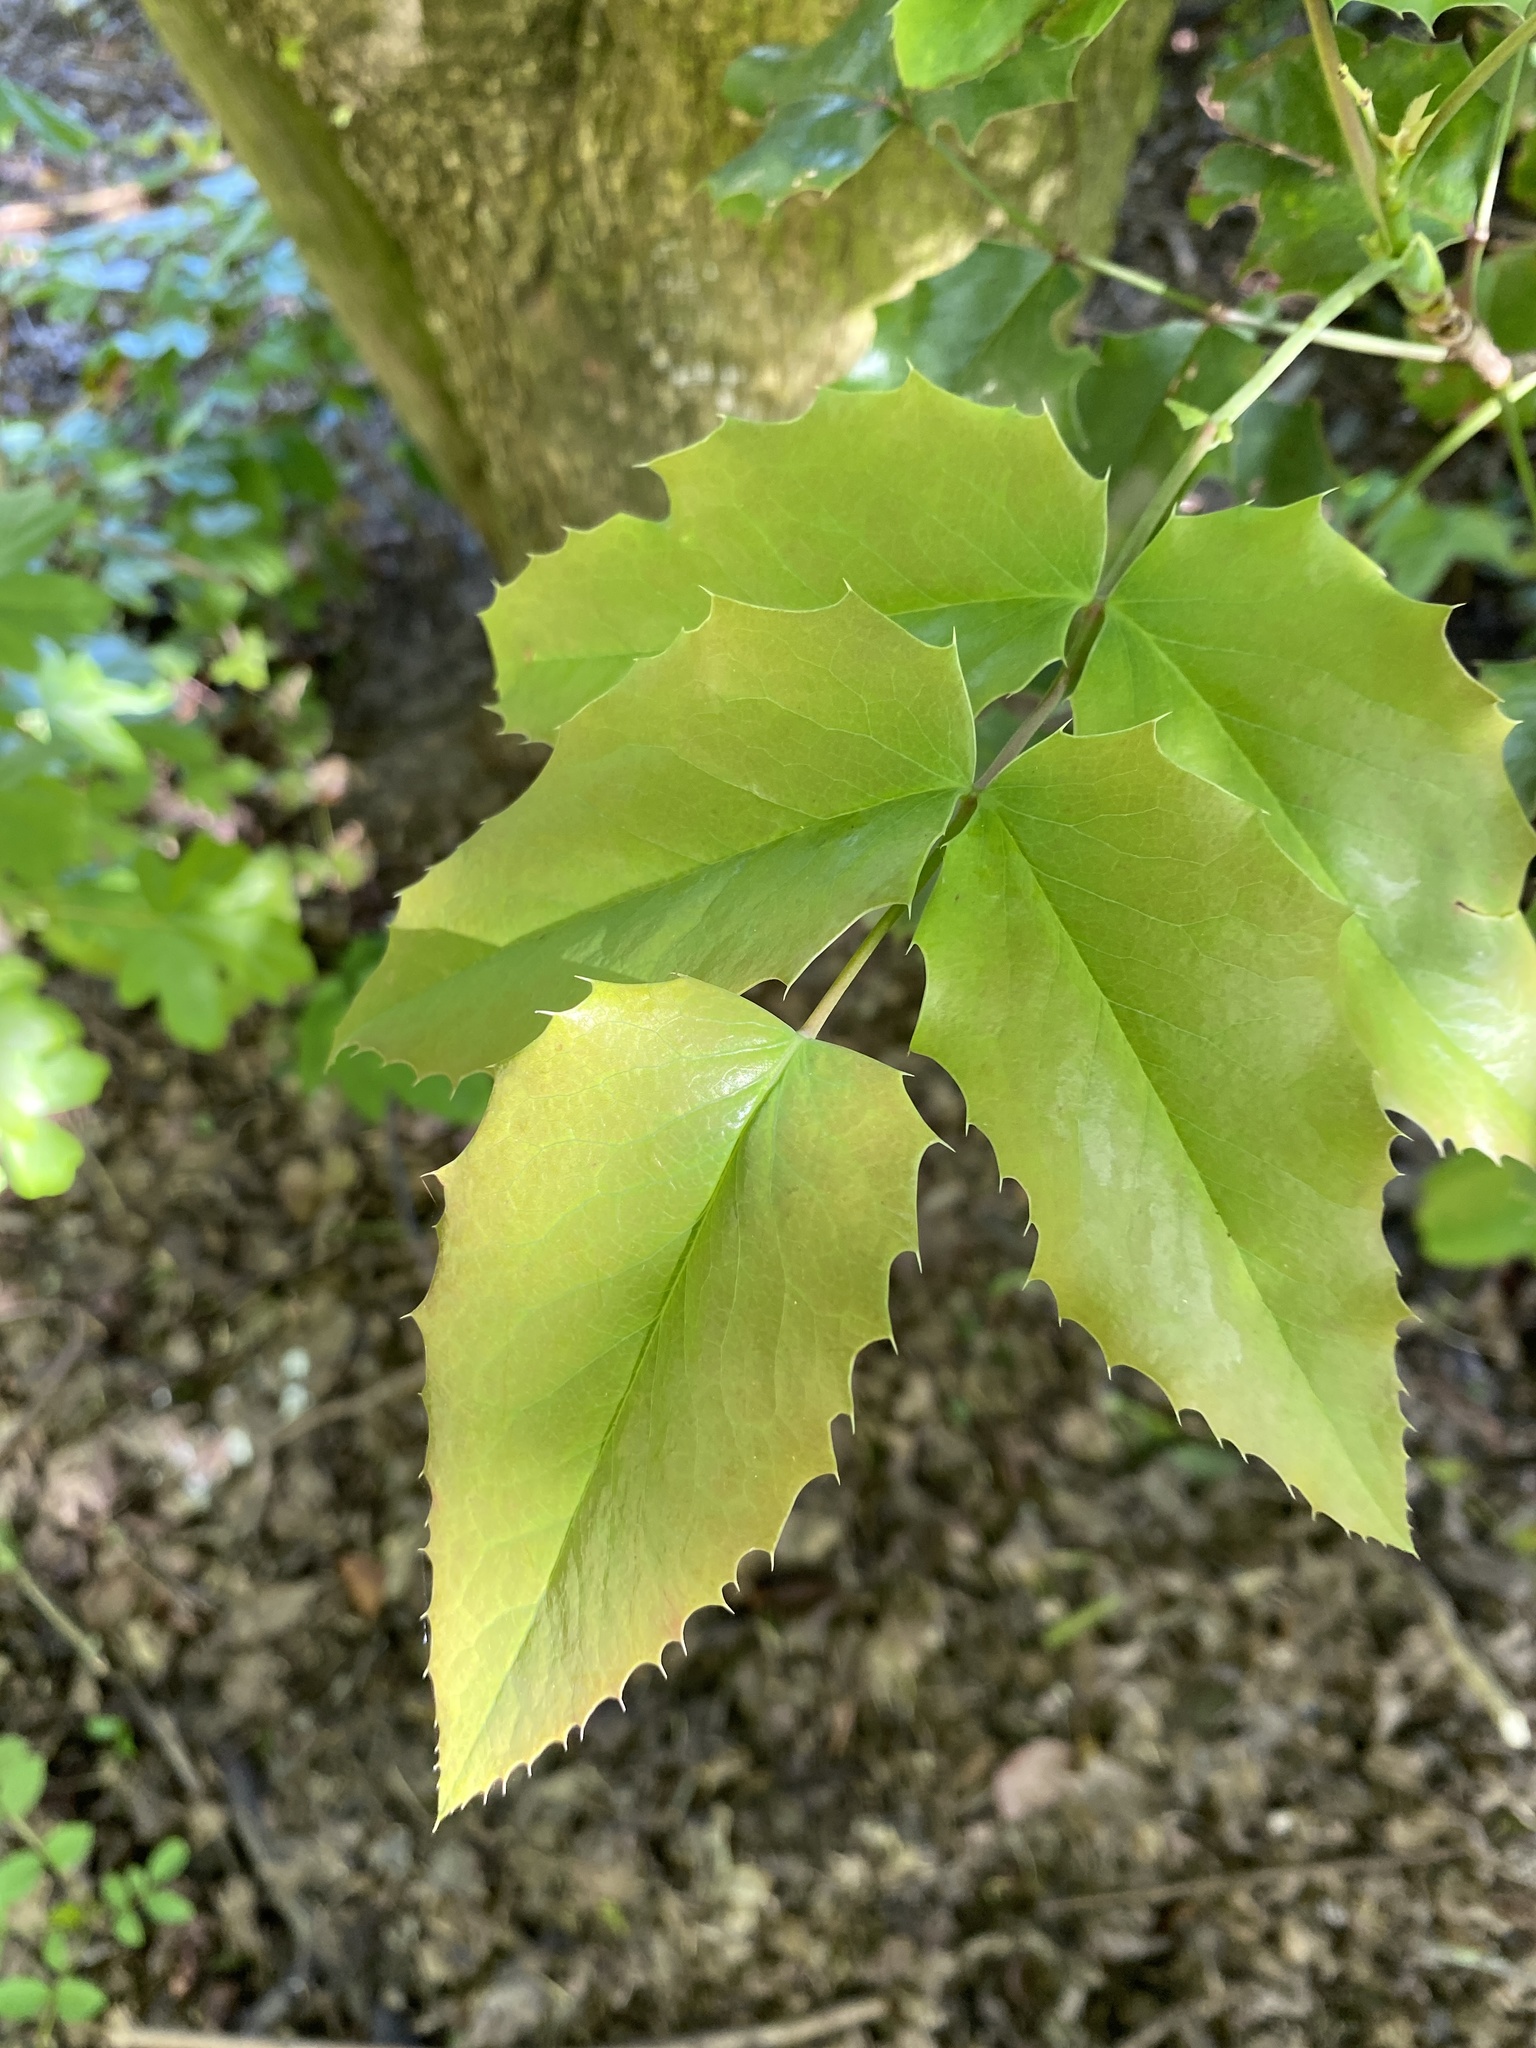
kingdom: Plantae
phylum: Tracheophyta
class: Magnoliopsida
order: Ranunculales
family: Berberidaceae
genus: Mahonia
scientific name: Mahonia aquifolium
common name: Oregon-grape
